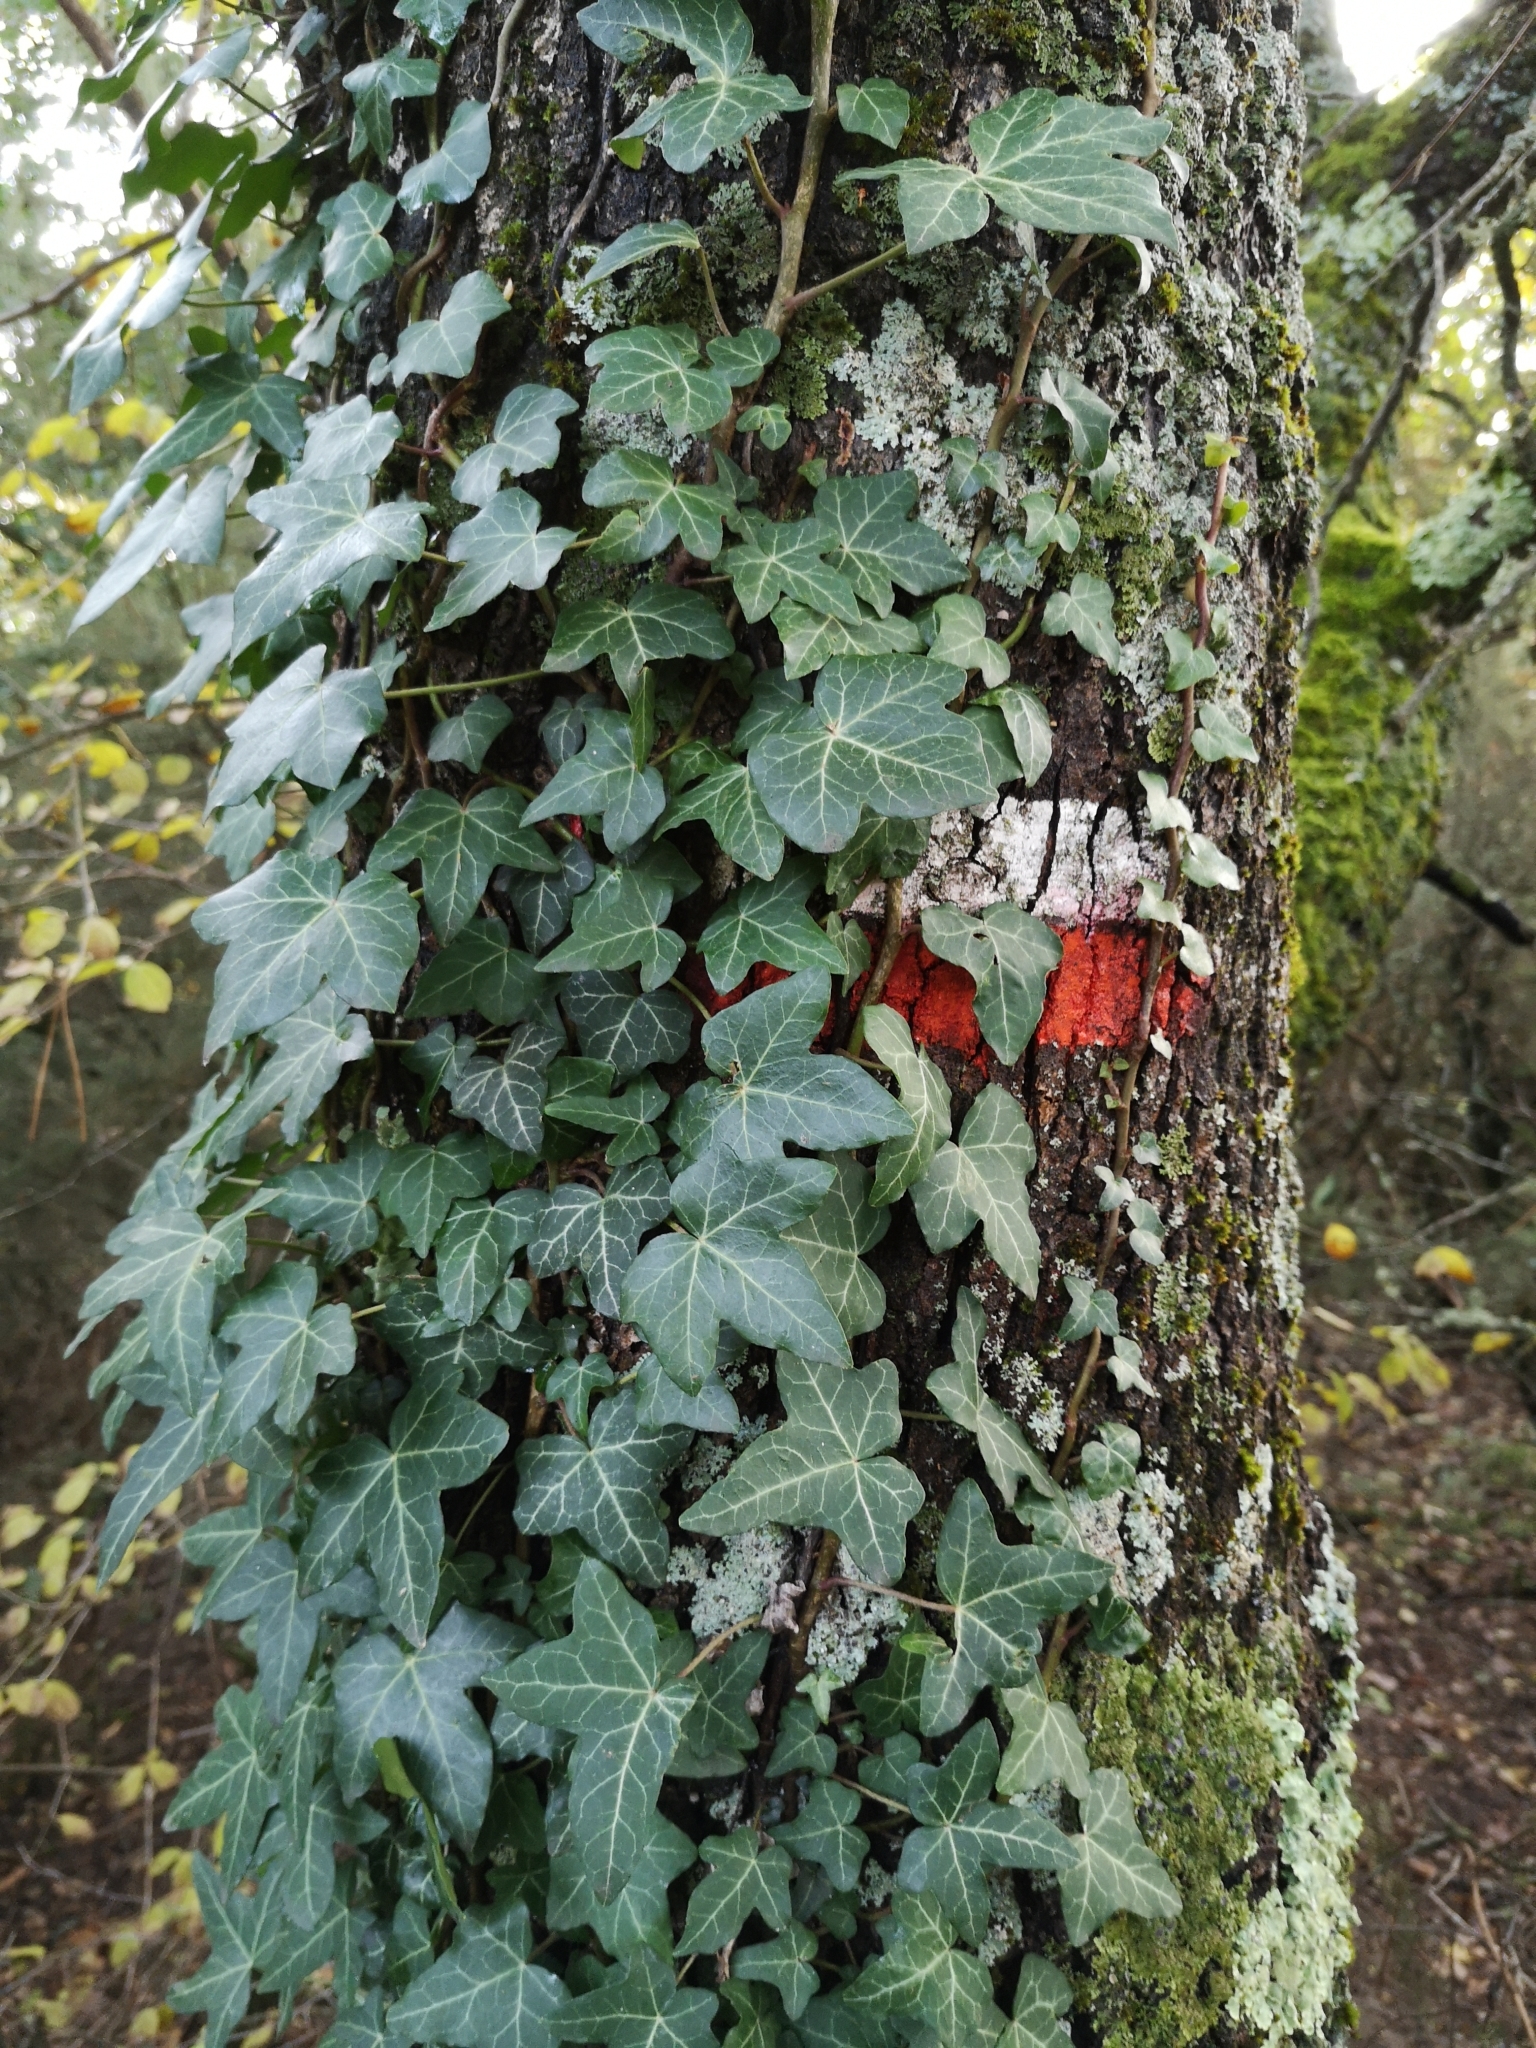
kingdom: Plantae
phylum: Tracheophyta
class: Magnoliopsida
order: Apiales
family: Araliaceae
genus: Hedera
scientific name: Hedera helix
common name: Ivy
